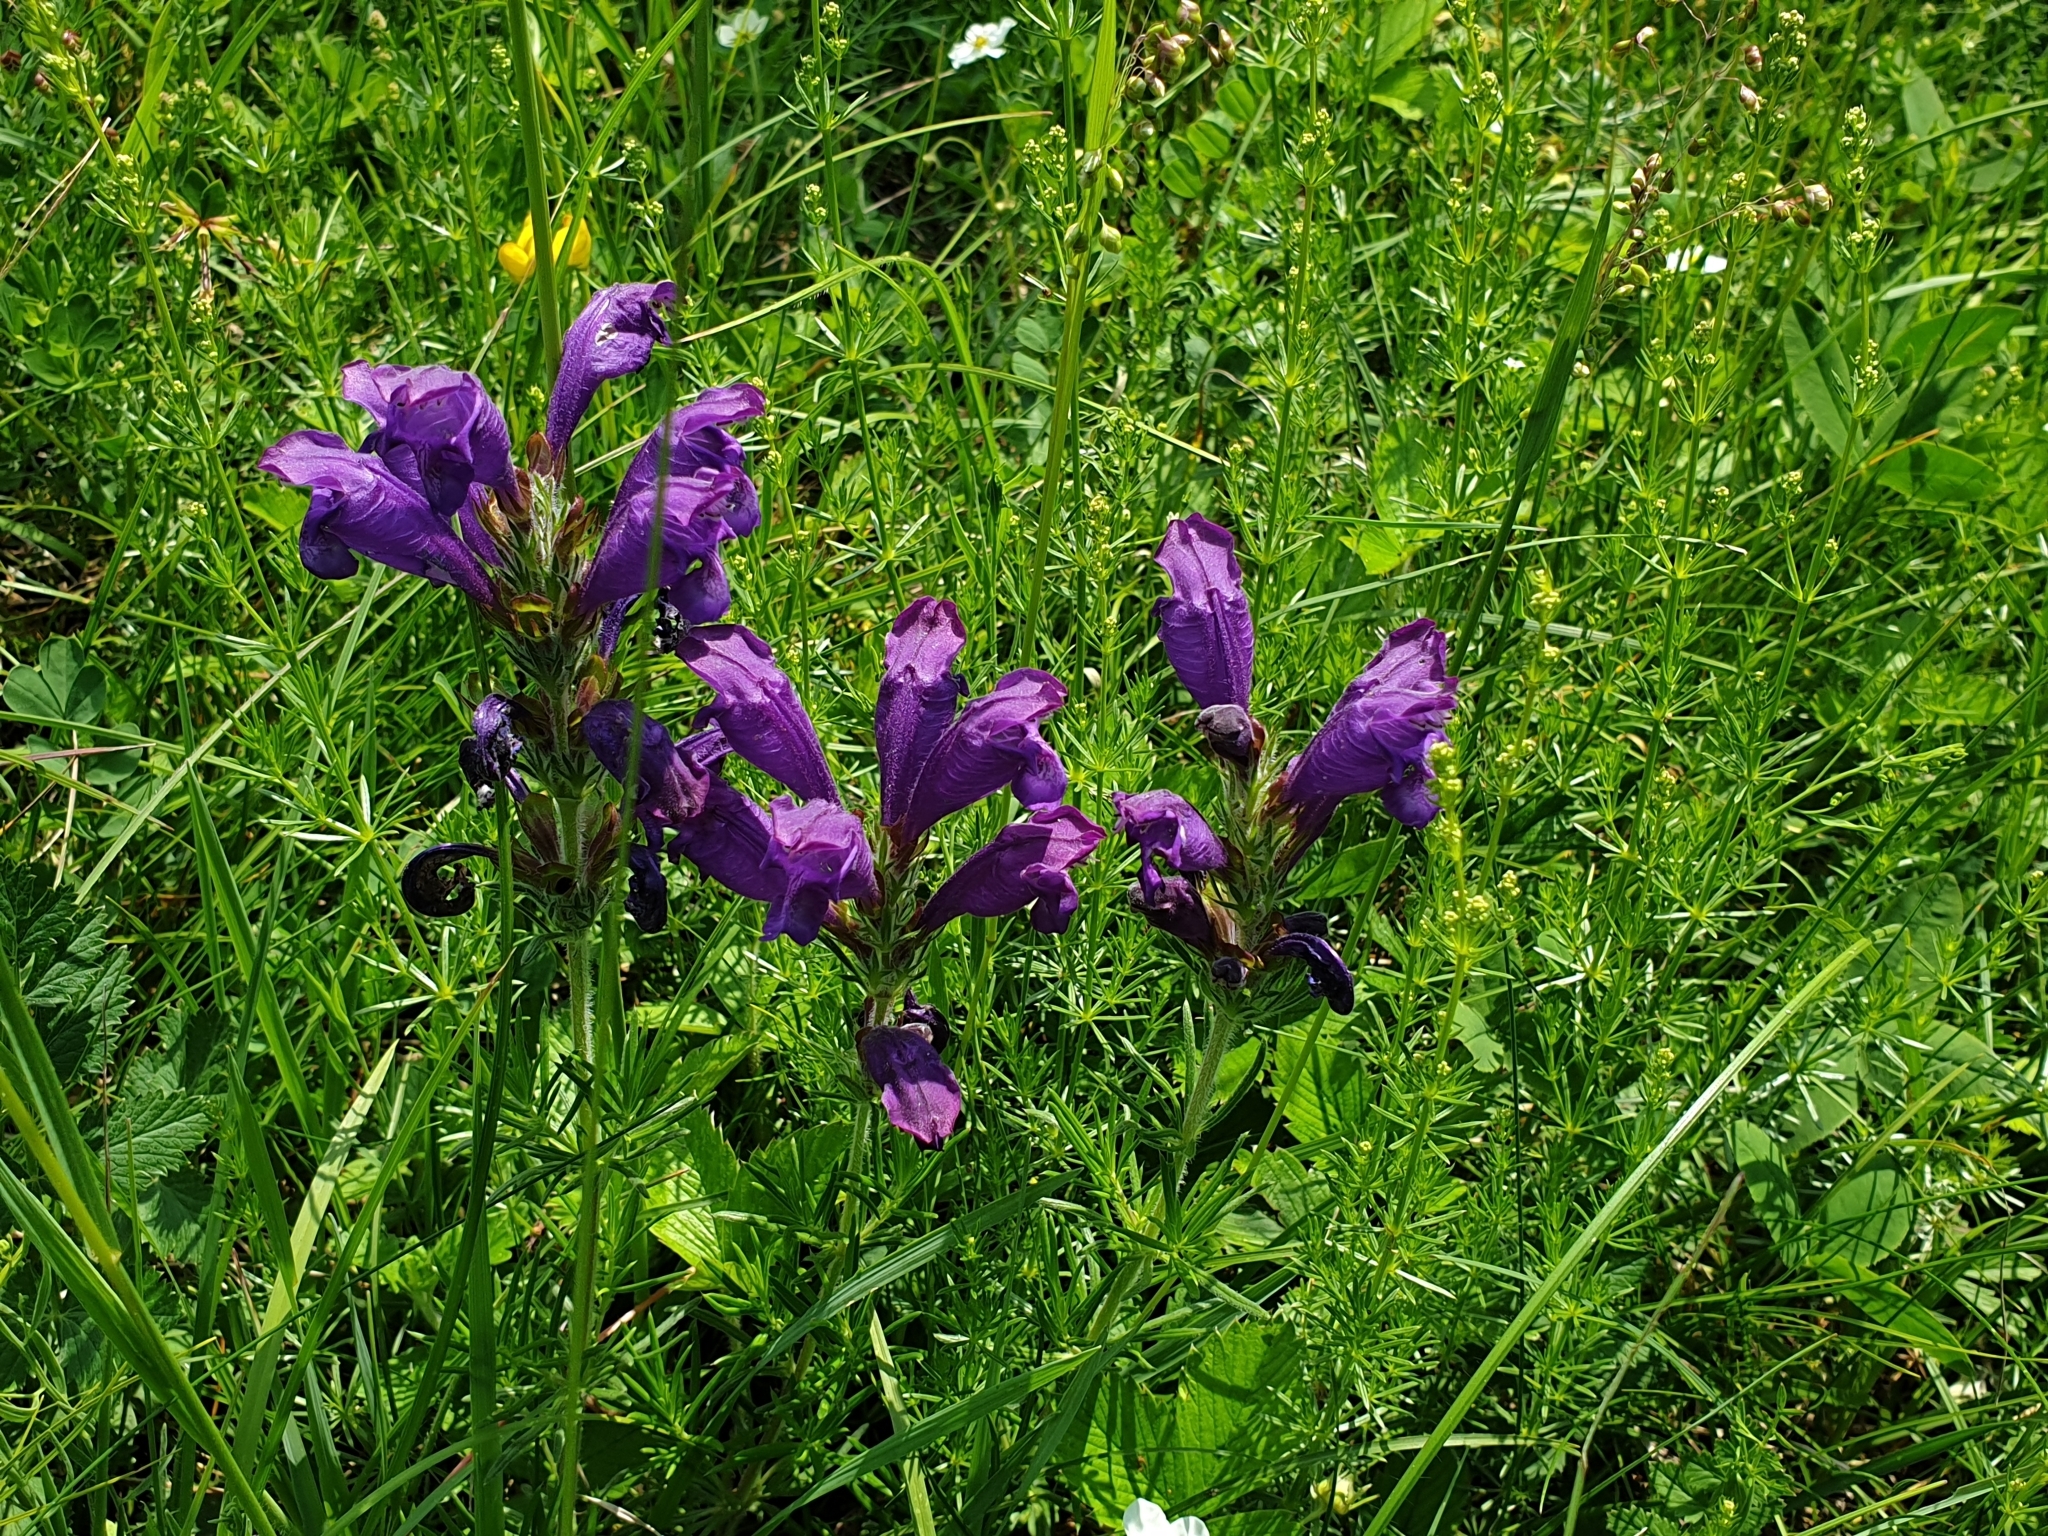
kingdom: Plantae
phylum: Tracheophyta
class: Magnoliopsida
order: Lamiales
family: Lamiaceae
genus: Dracocephalum
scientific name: Dracocephalum austriacum
